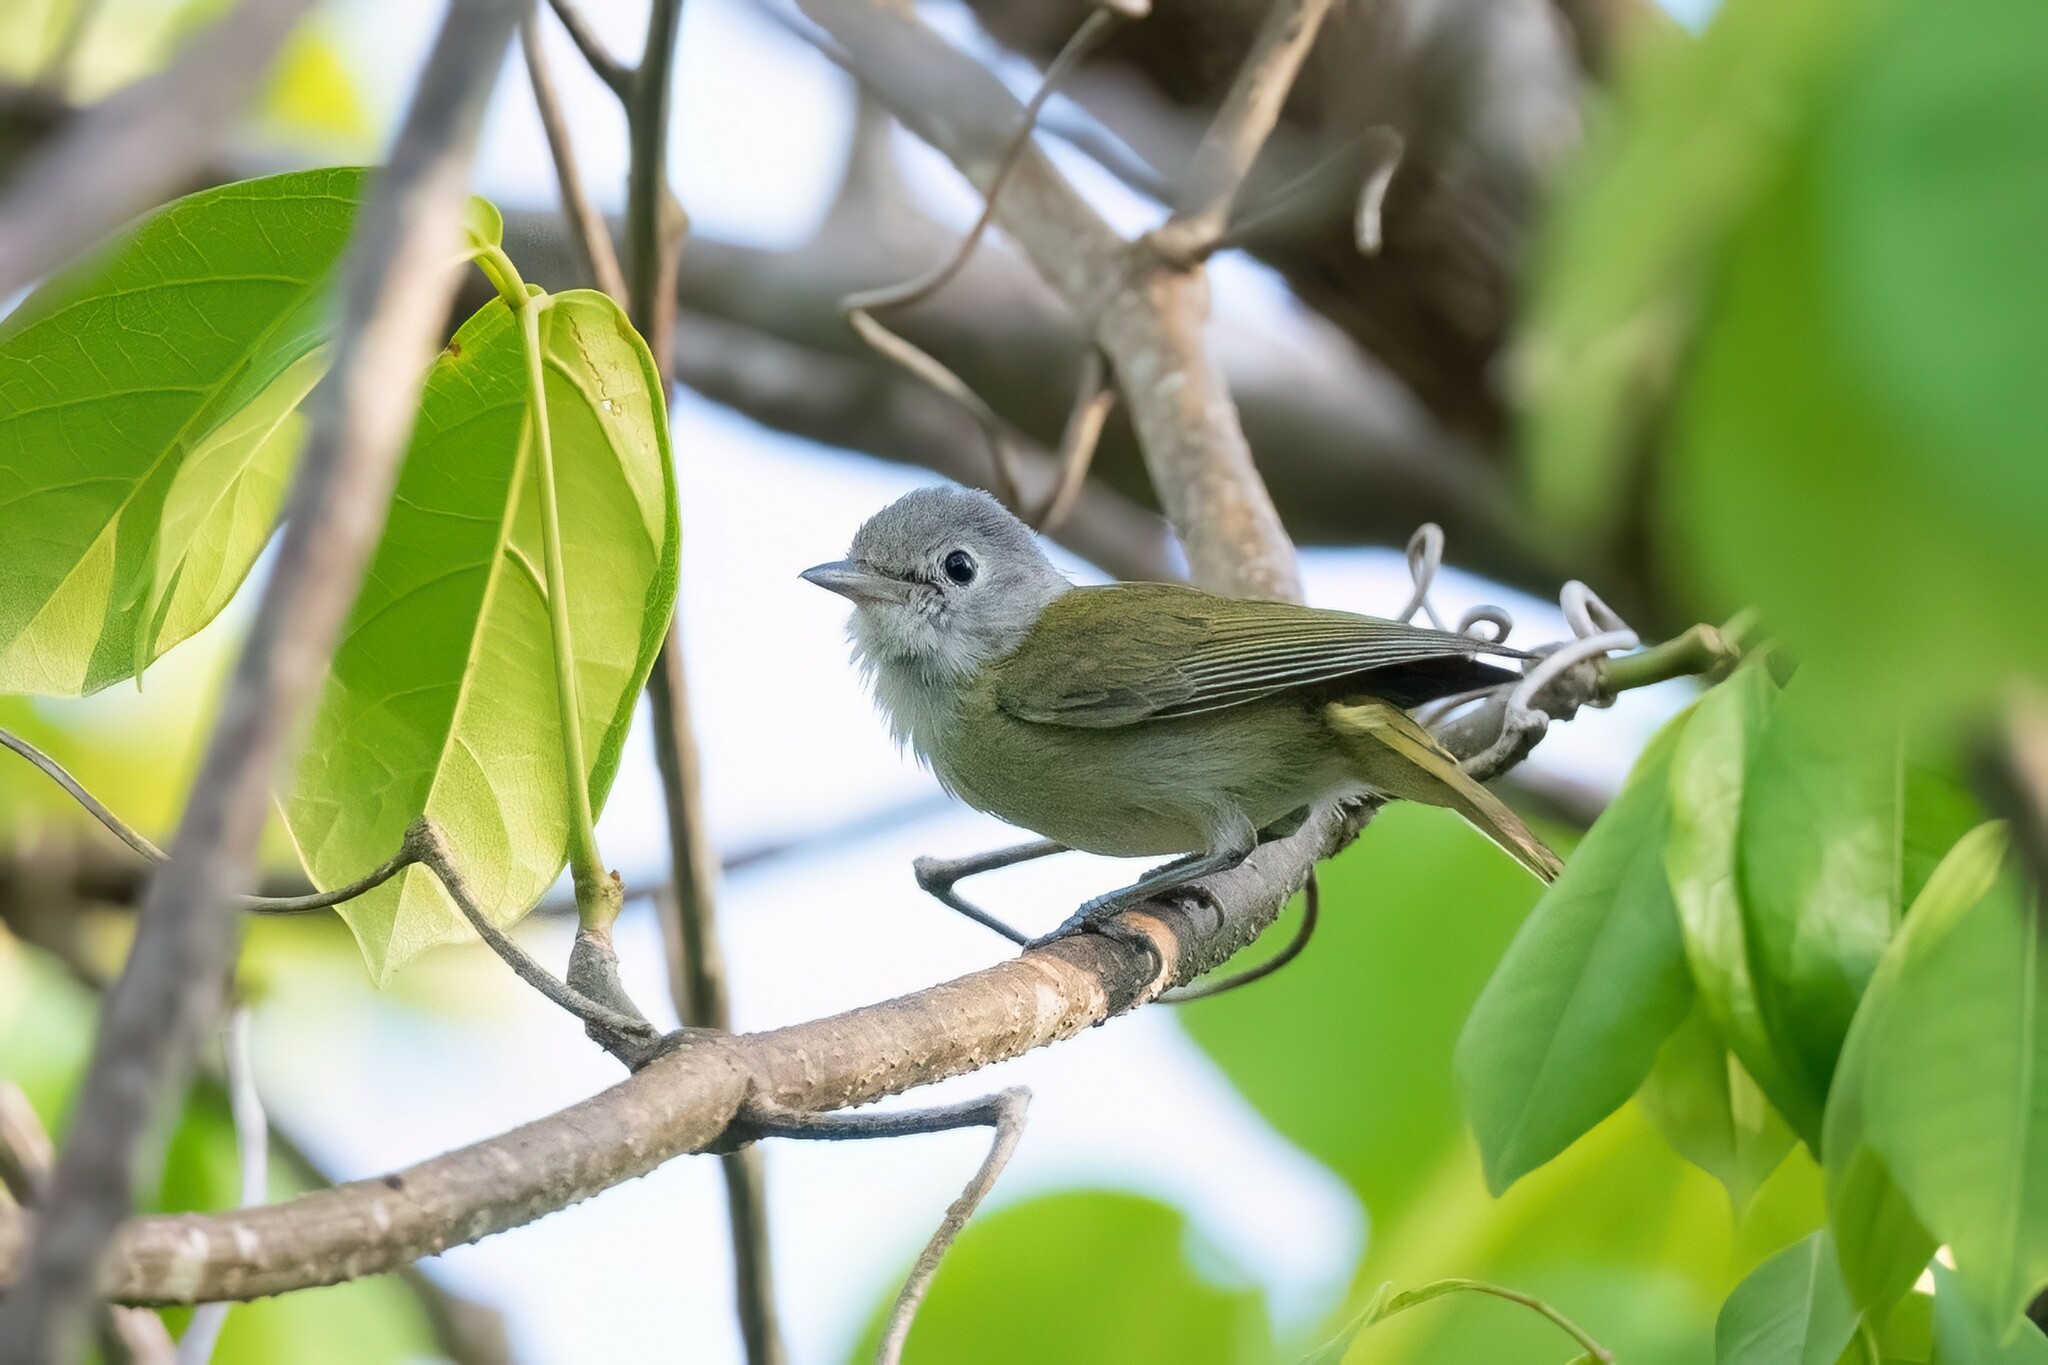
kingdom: Animalia
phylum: Chordata
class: Aves
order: Passeriformes
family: Vireonidae
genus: Hylophilus
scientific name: Hylophilus decurtatus
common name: Lesser greenlet
